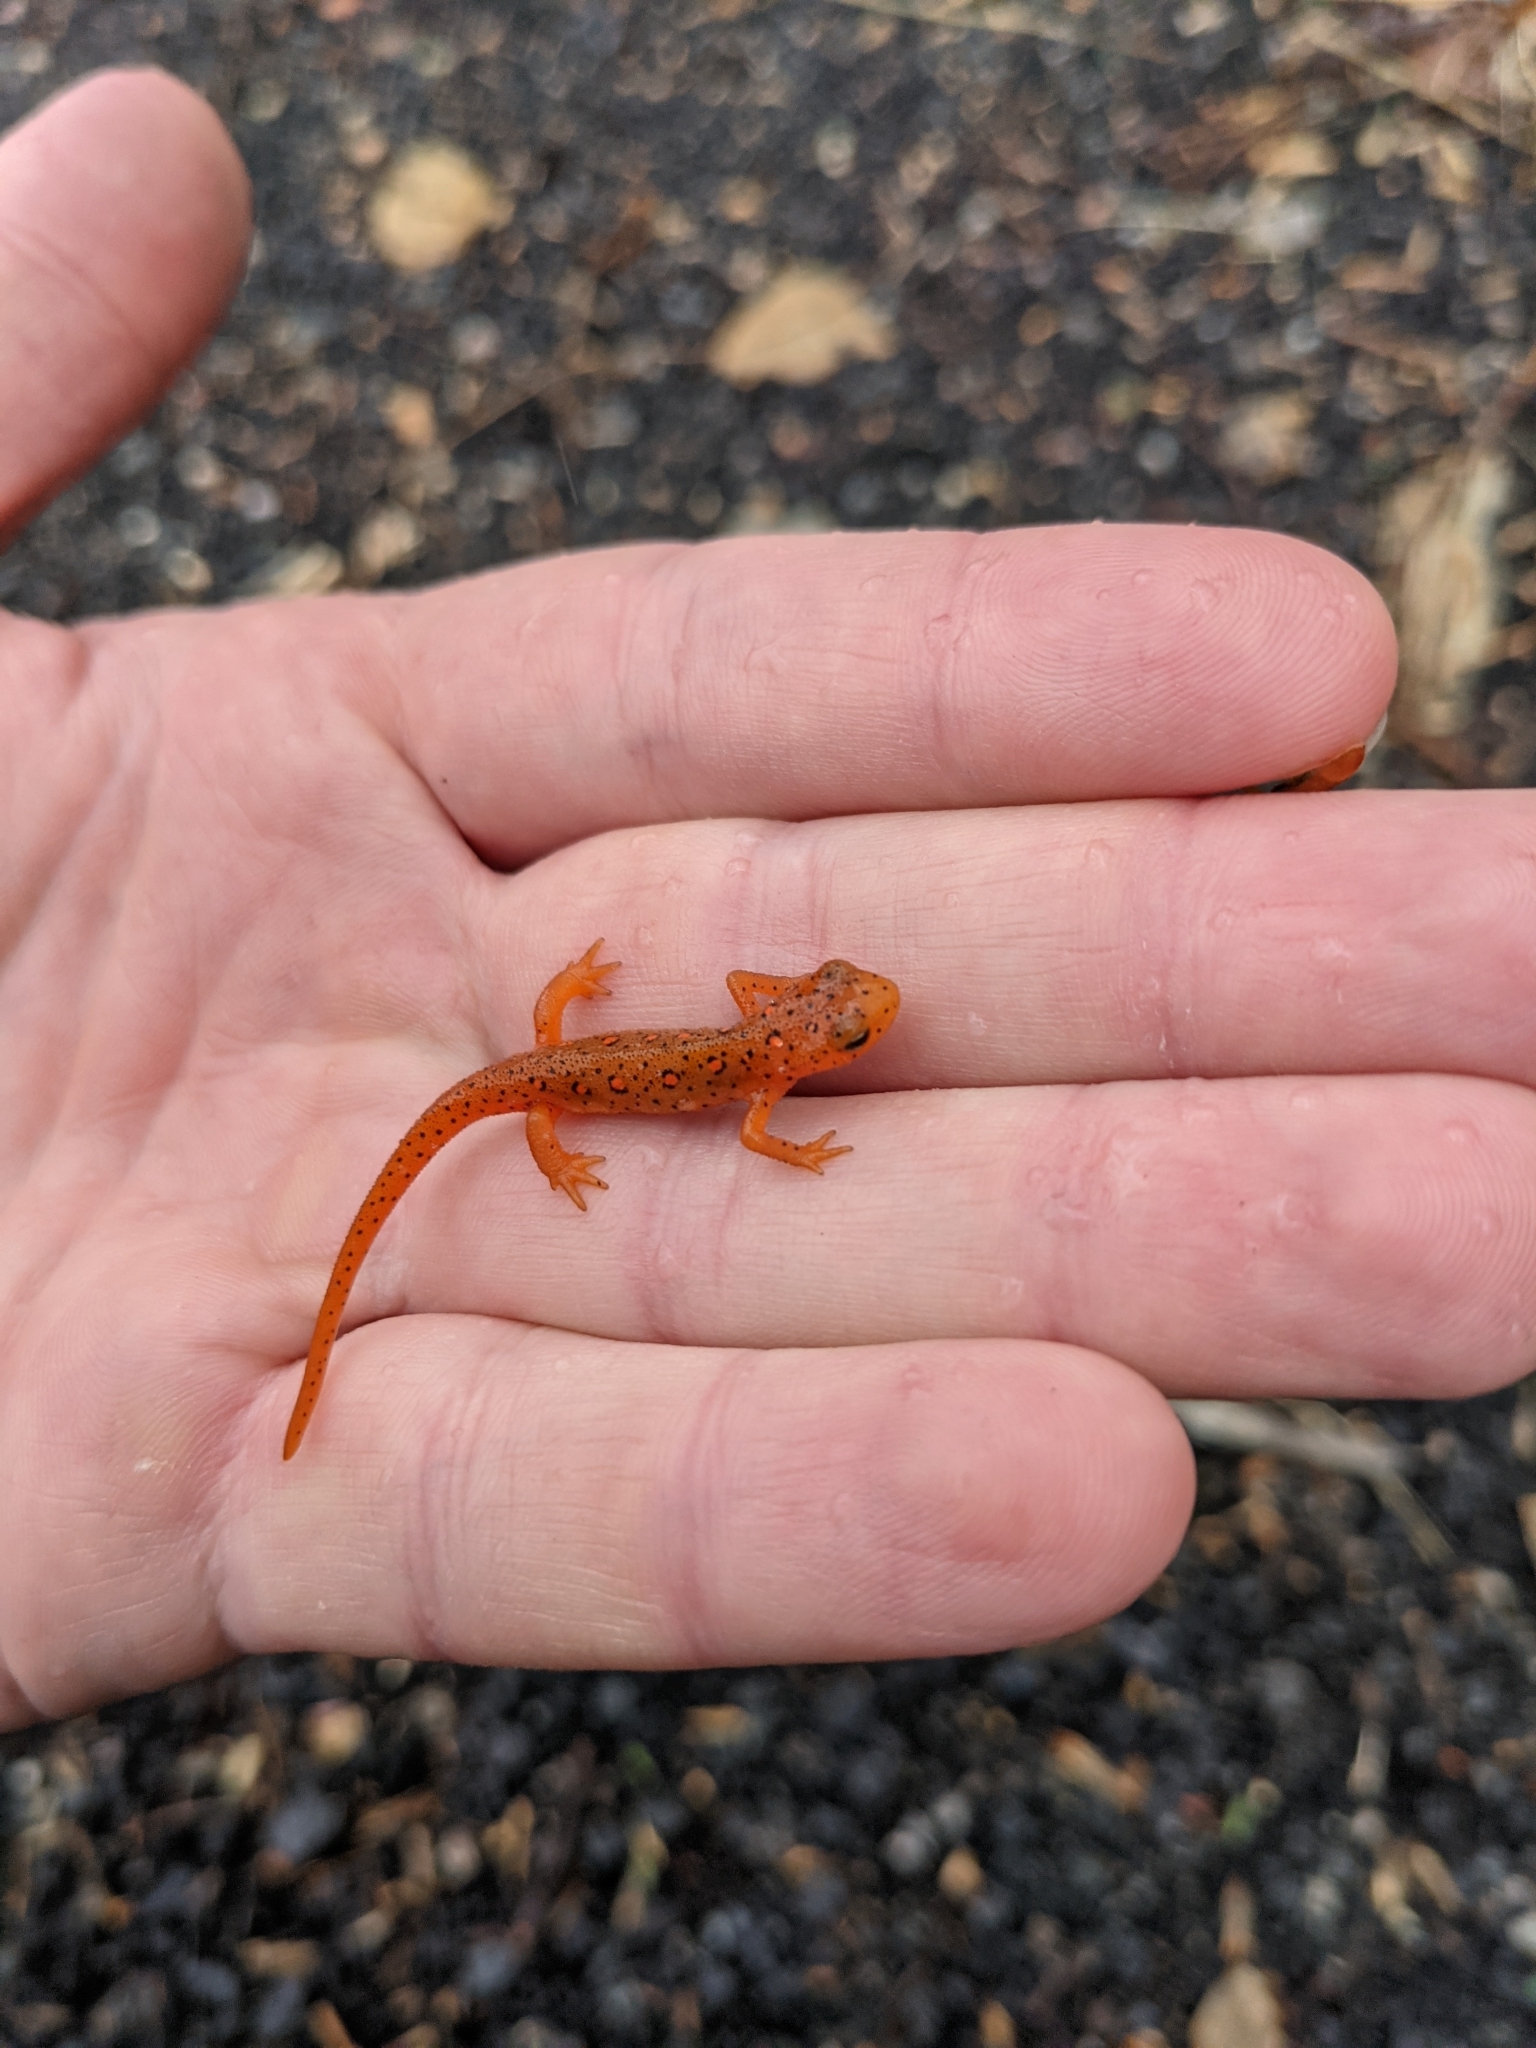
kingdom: Animalia
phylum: Chordata
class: Amphibia
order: Caudata
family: Salamandridae
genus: Notophthalmus
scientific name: Notophthalmus viridescens
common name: Eastern newt
